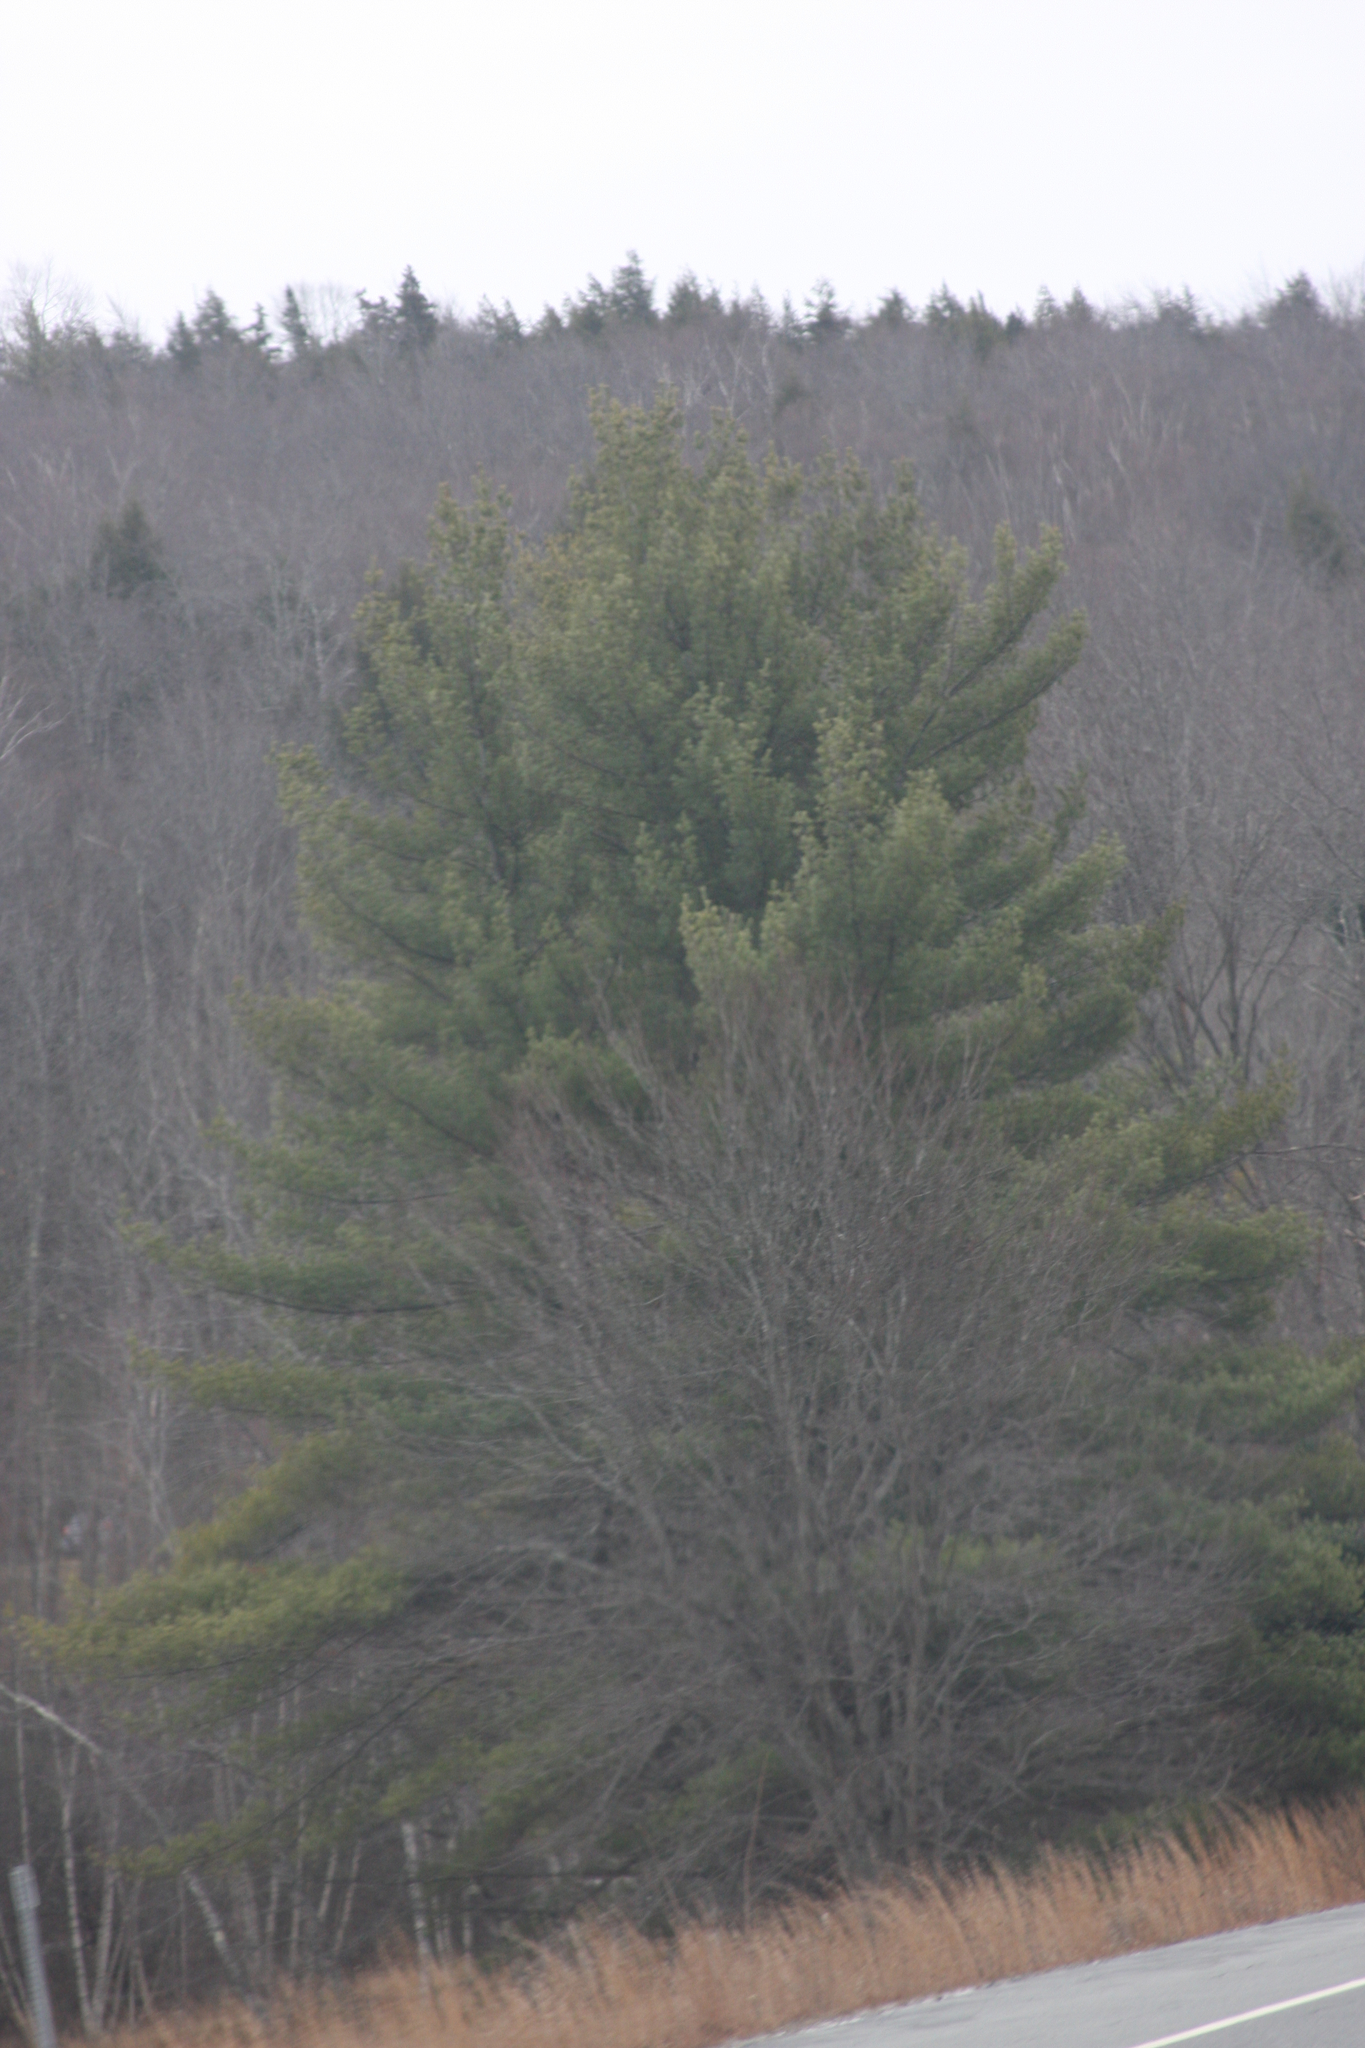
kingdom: Plantae
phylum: Tracheophyta
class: Pinopsida
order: Pinales
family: Pinaceae
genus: Pinus
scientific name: Pinus strobus
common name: Weymouth pine
